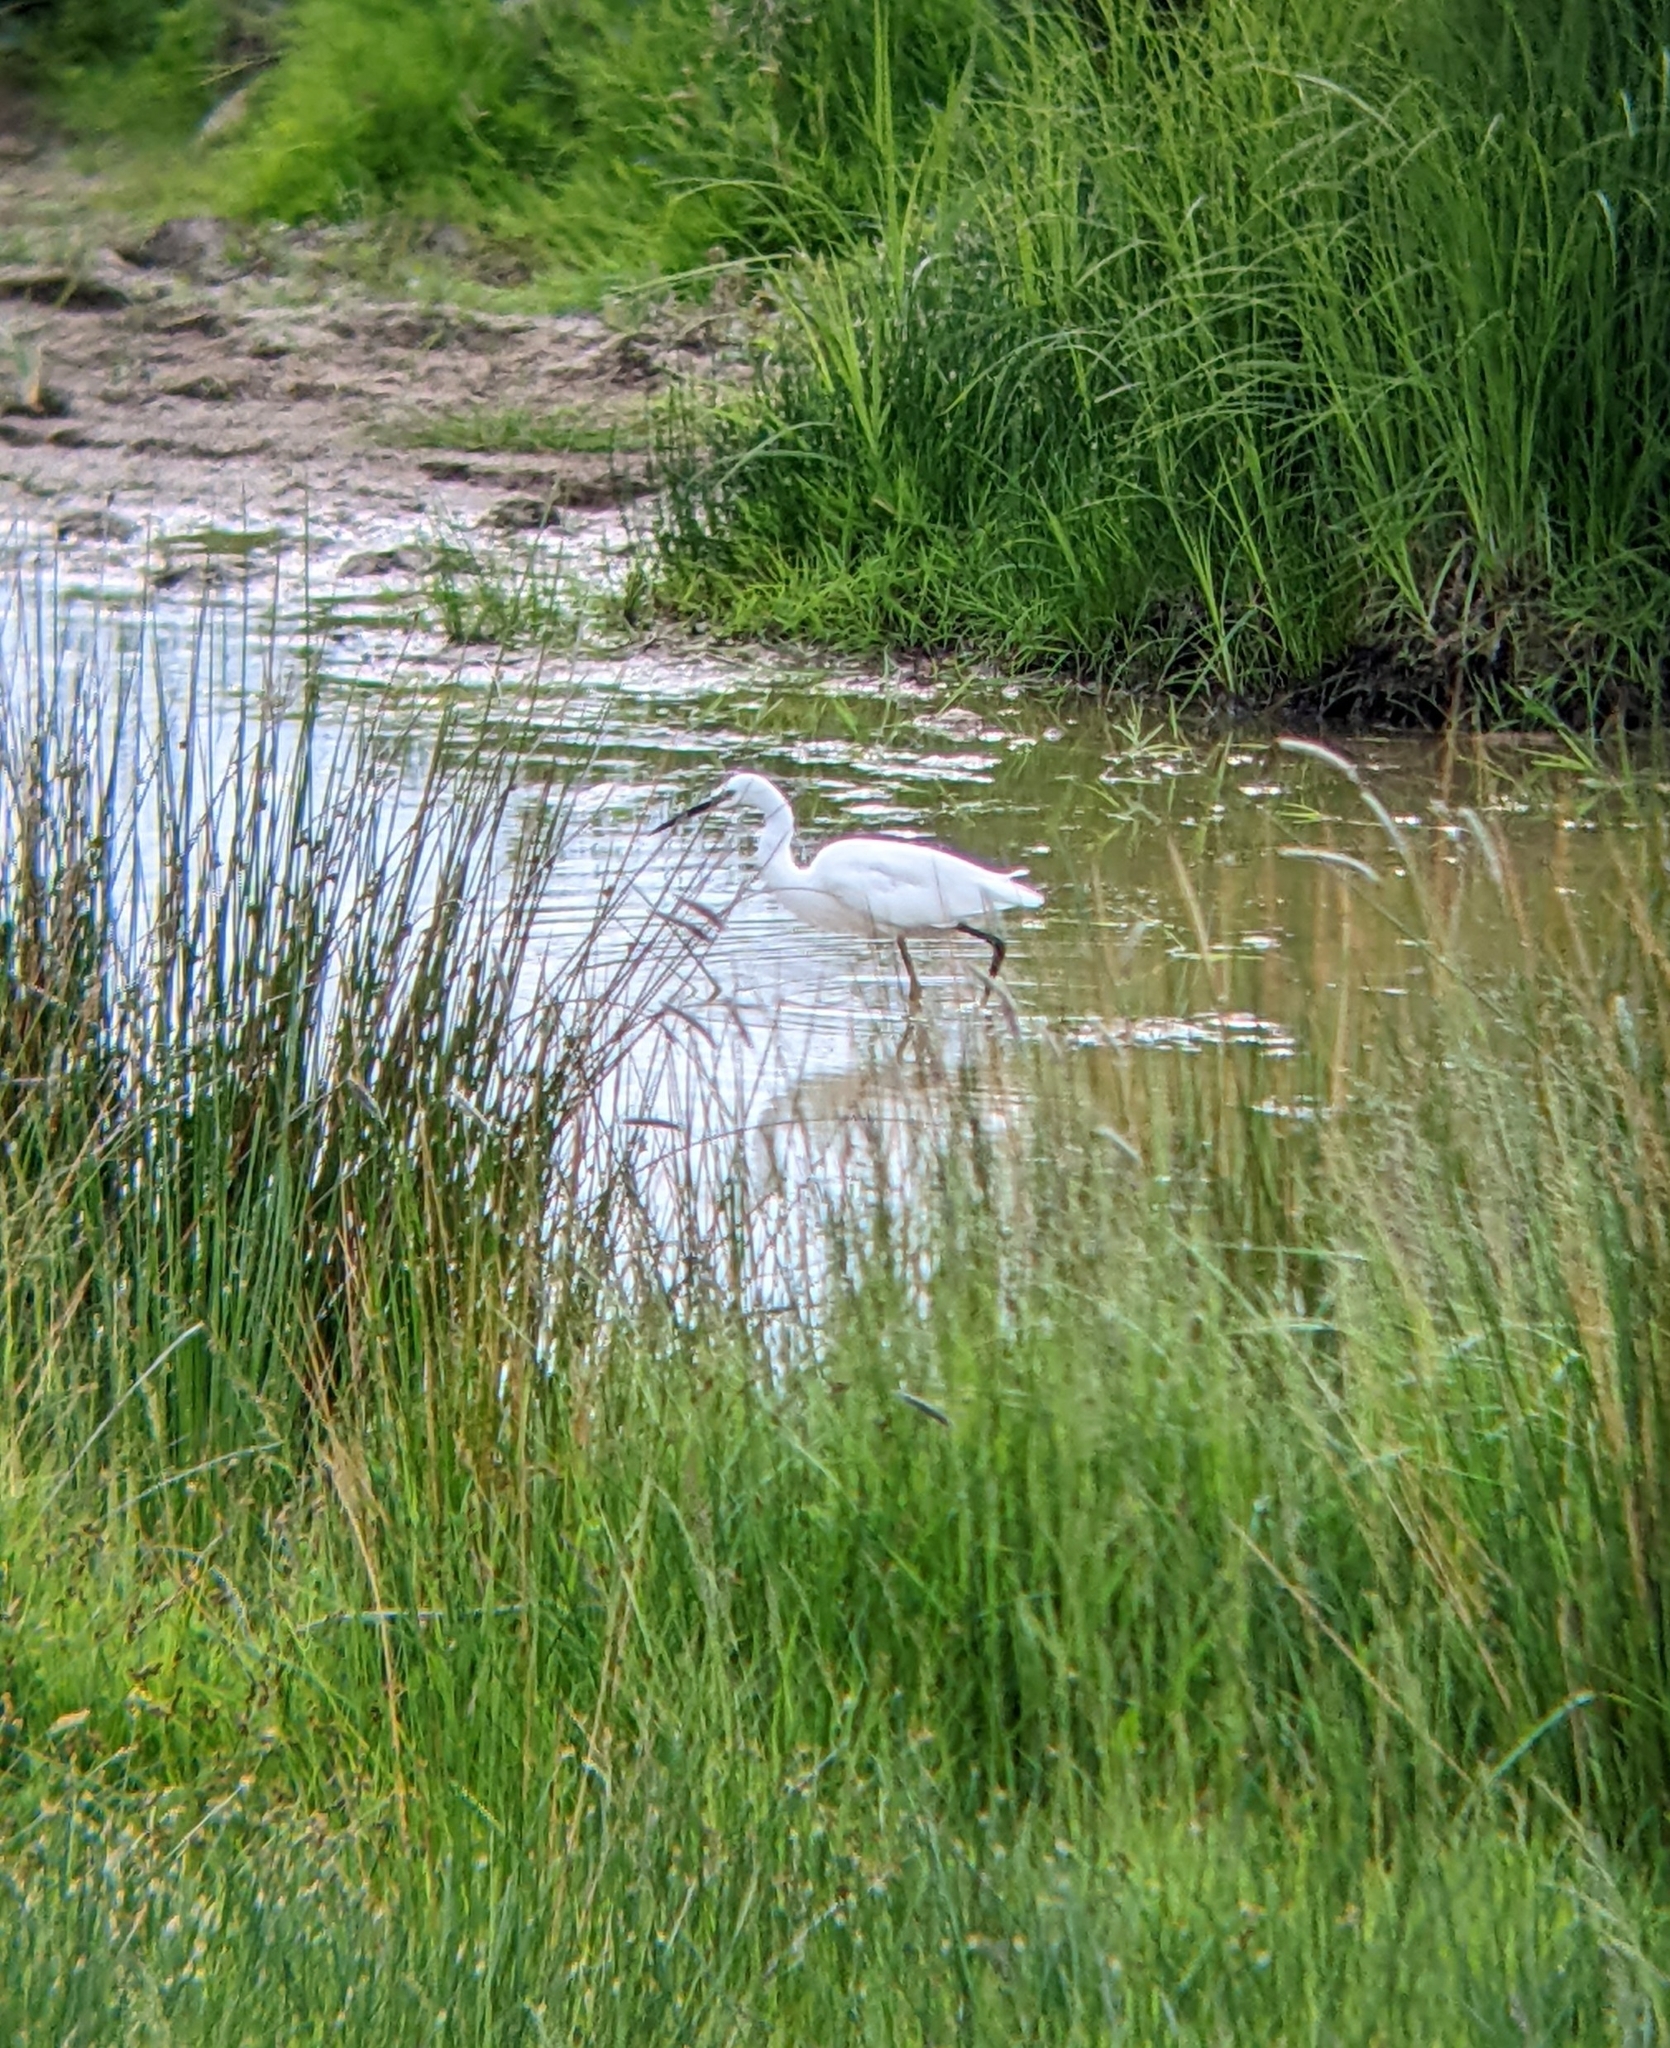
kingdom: Animalia
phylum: Chordata
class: Aves
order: Pelecaniformes
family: Ardeidae
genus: Egretta
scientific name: Egretta garzetta
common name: Little egret
